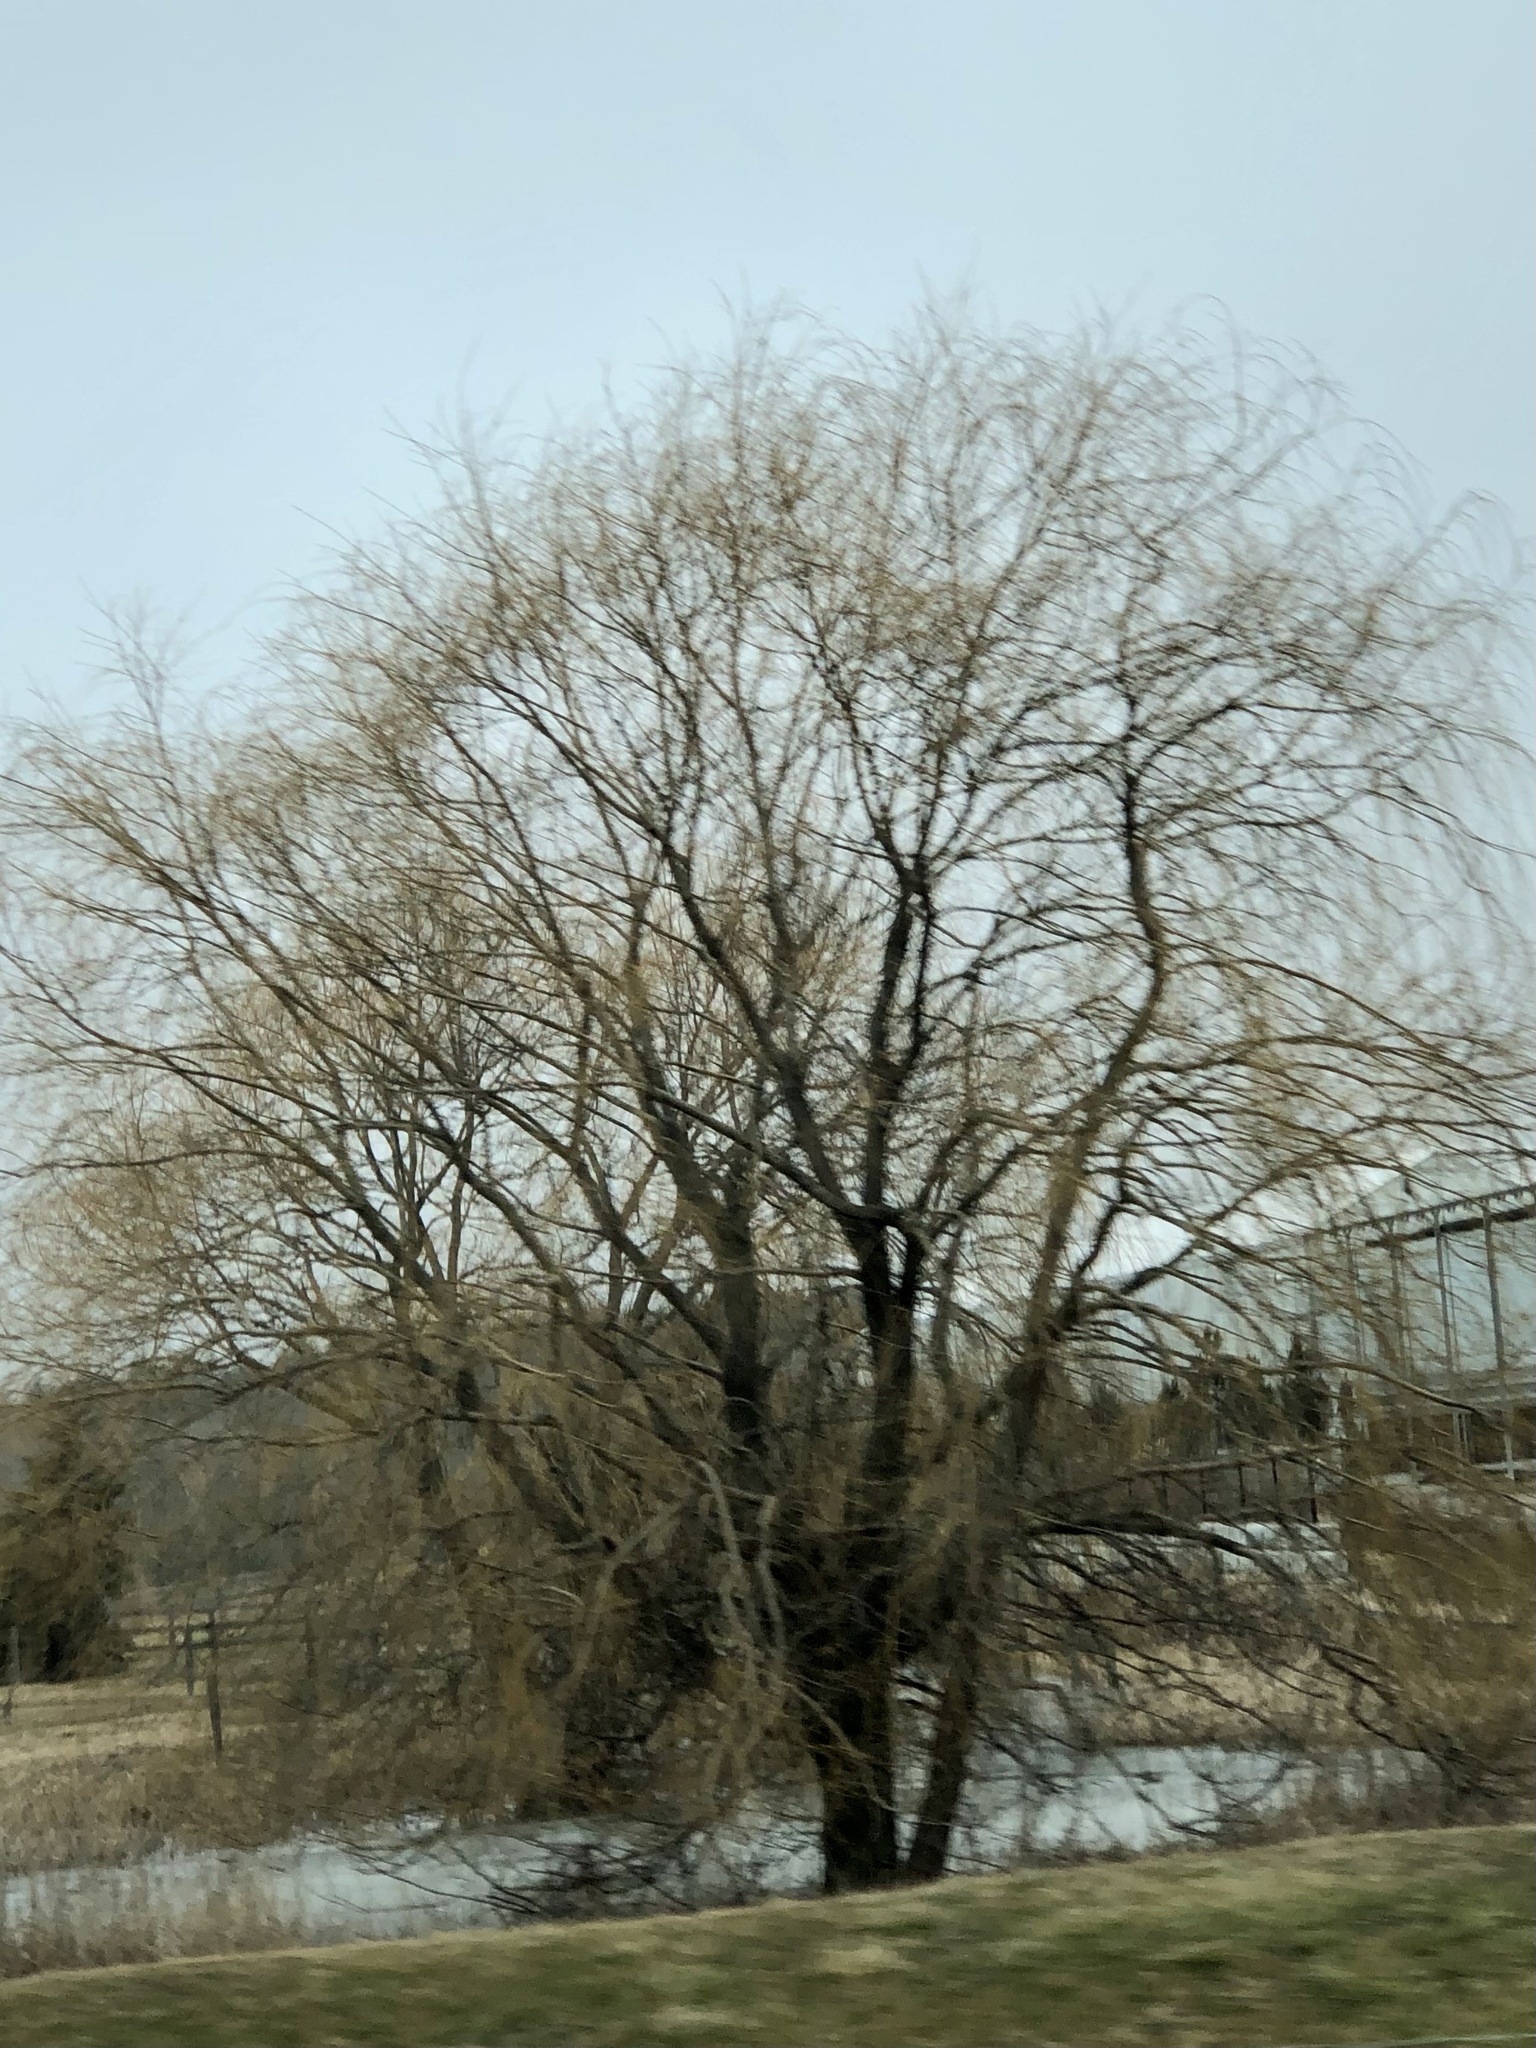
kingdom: Plantae
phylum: Tracheophyta
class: Magnoliopsida
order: Malpighiales
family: Salicaceae
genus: Salix
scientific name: Salix pendulina
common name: Wisconsin weeping willow
